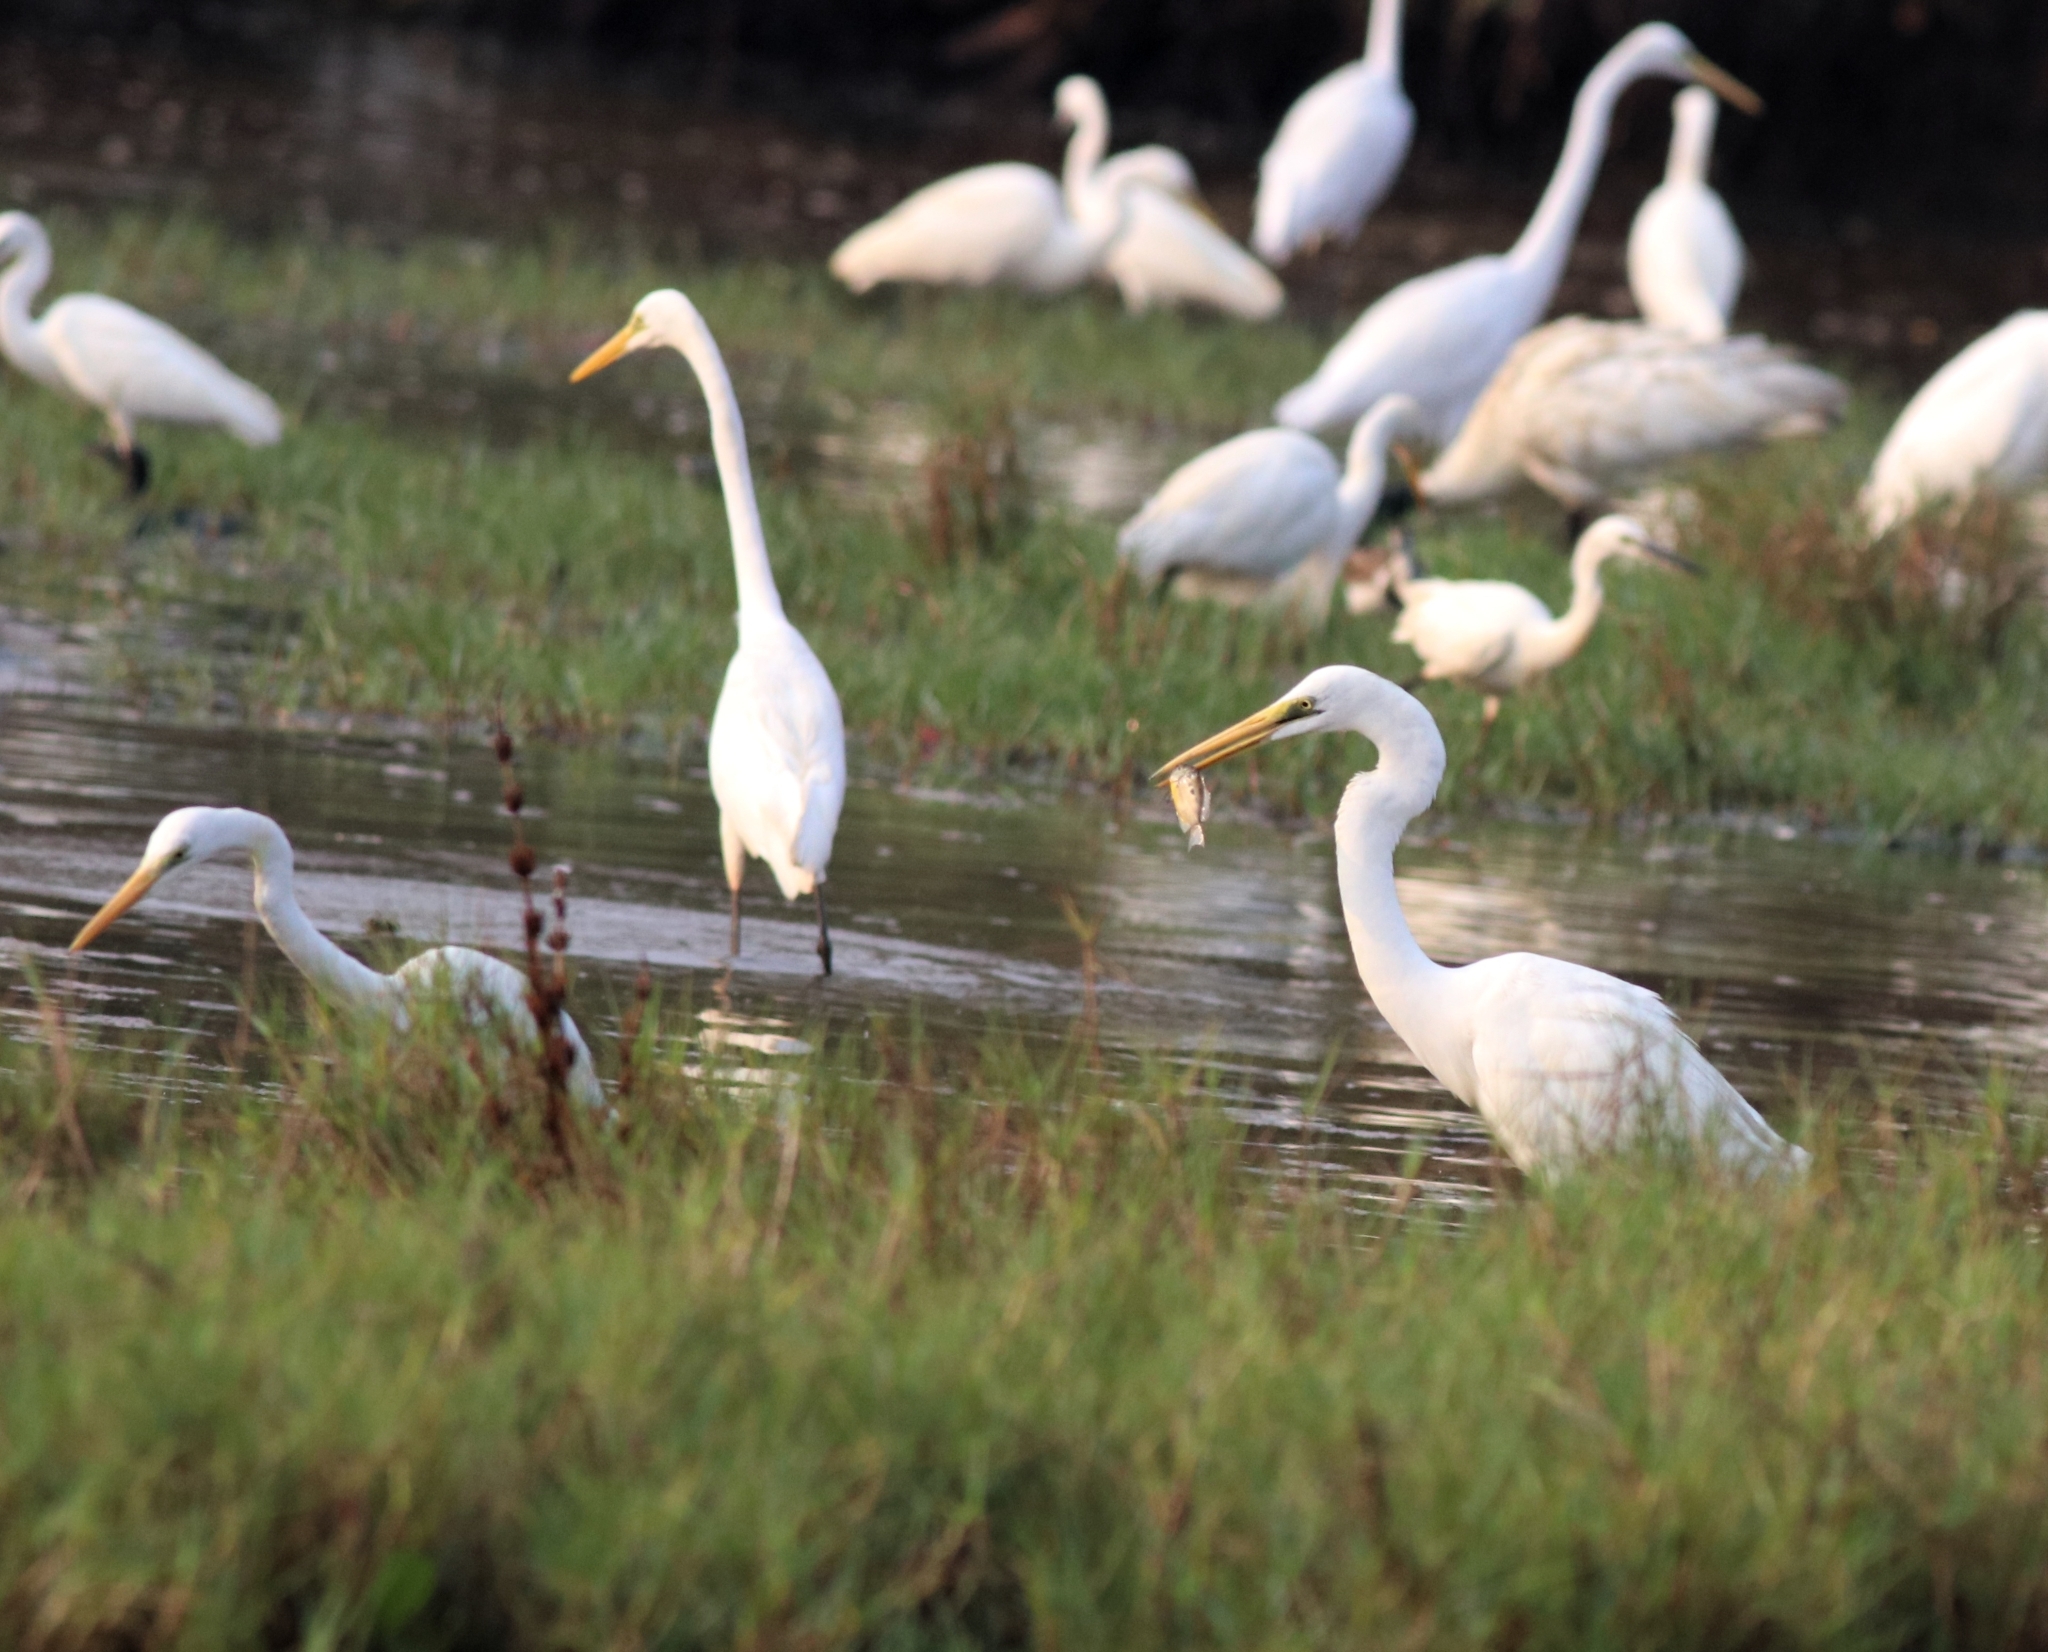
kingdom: Animalia
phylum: Chordata
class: Aves
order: Pelecaniformes
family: Ardeidae
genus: Ardea
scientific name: Ardea alba
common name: Great egret
